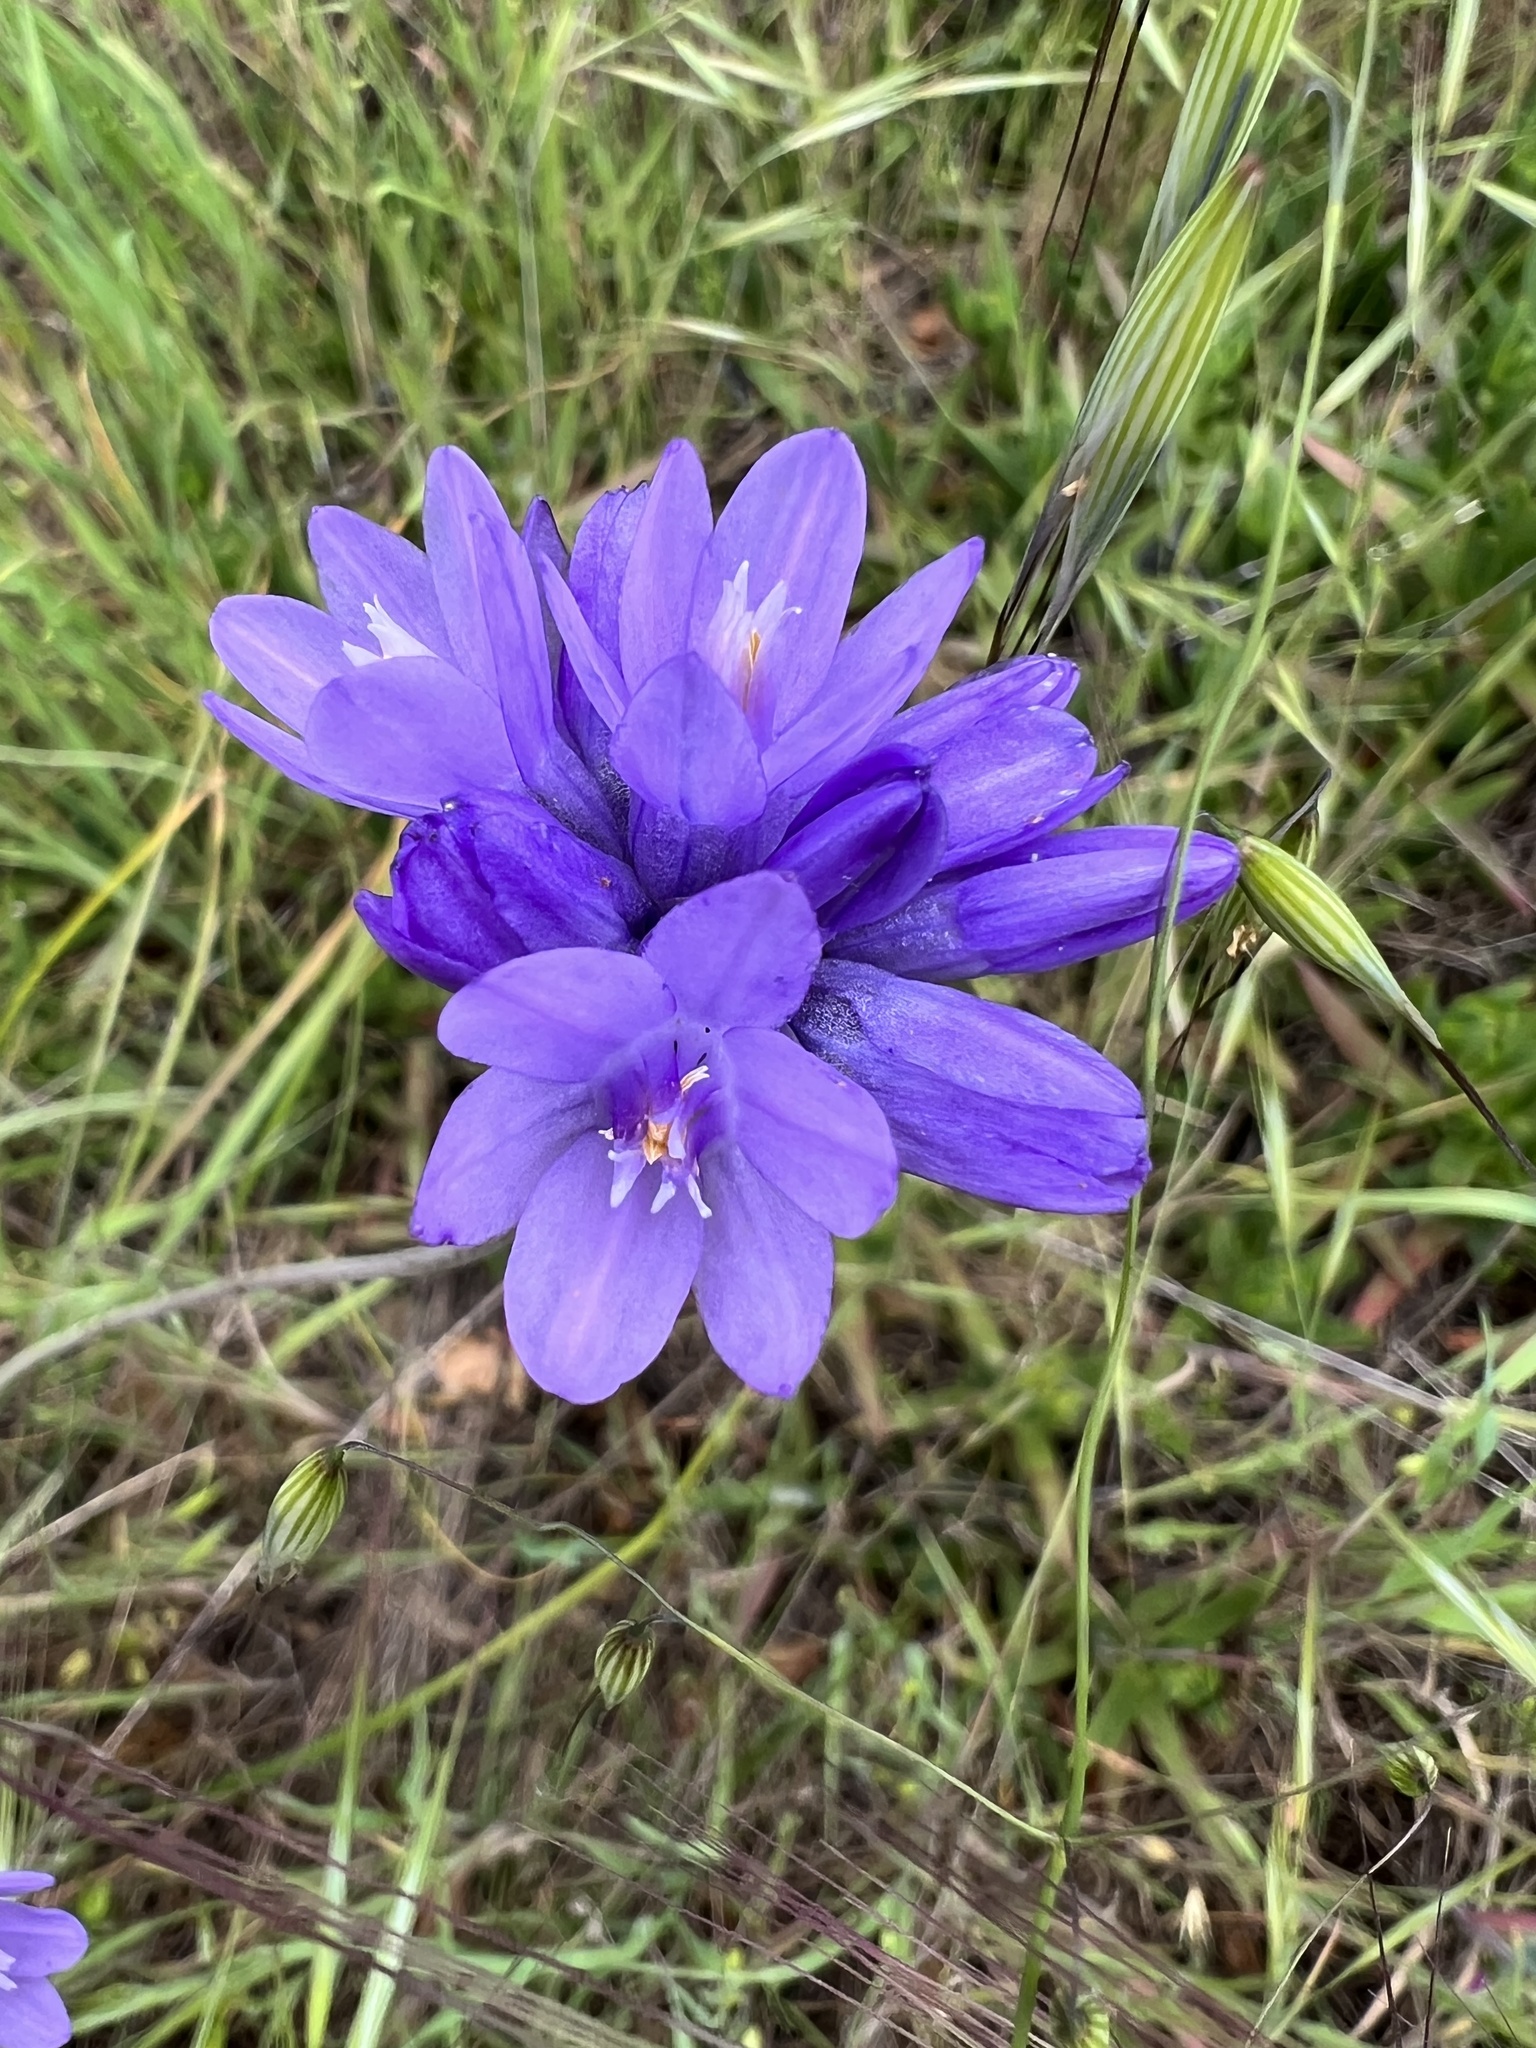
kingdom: Plantae
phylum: Tracheophyta
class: Liliopsida
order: Asparagales
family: Asparagaceae
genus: Dipterostemon
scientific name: Dipterostemon capitatus
